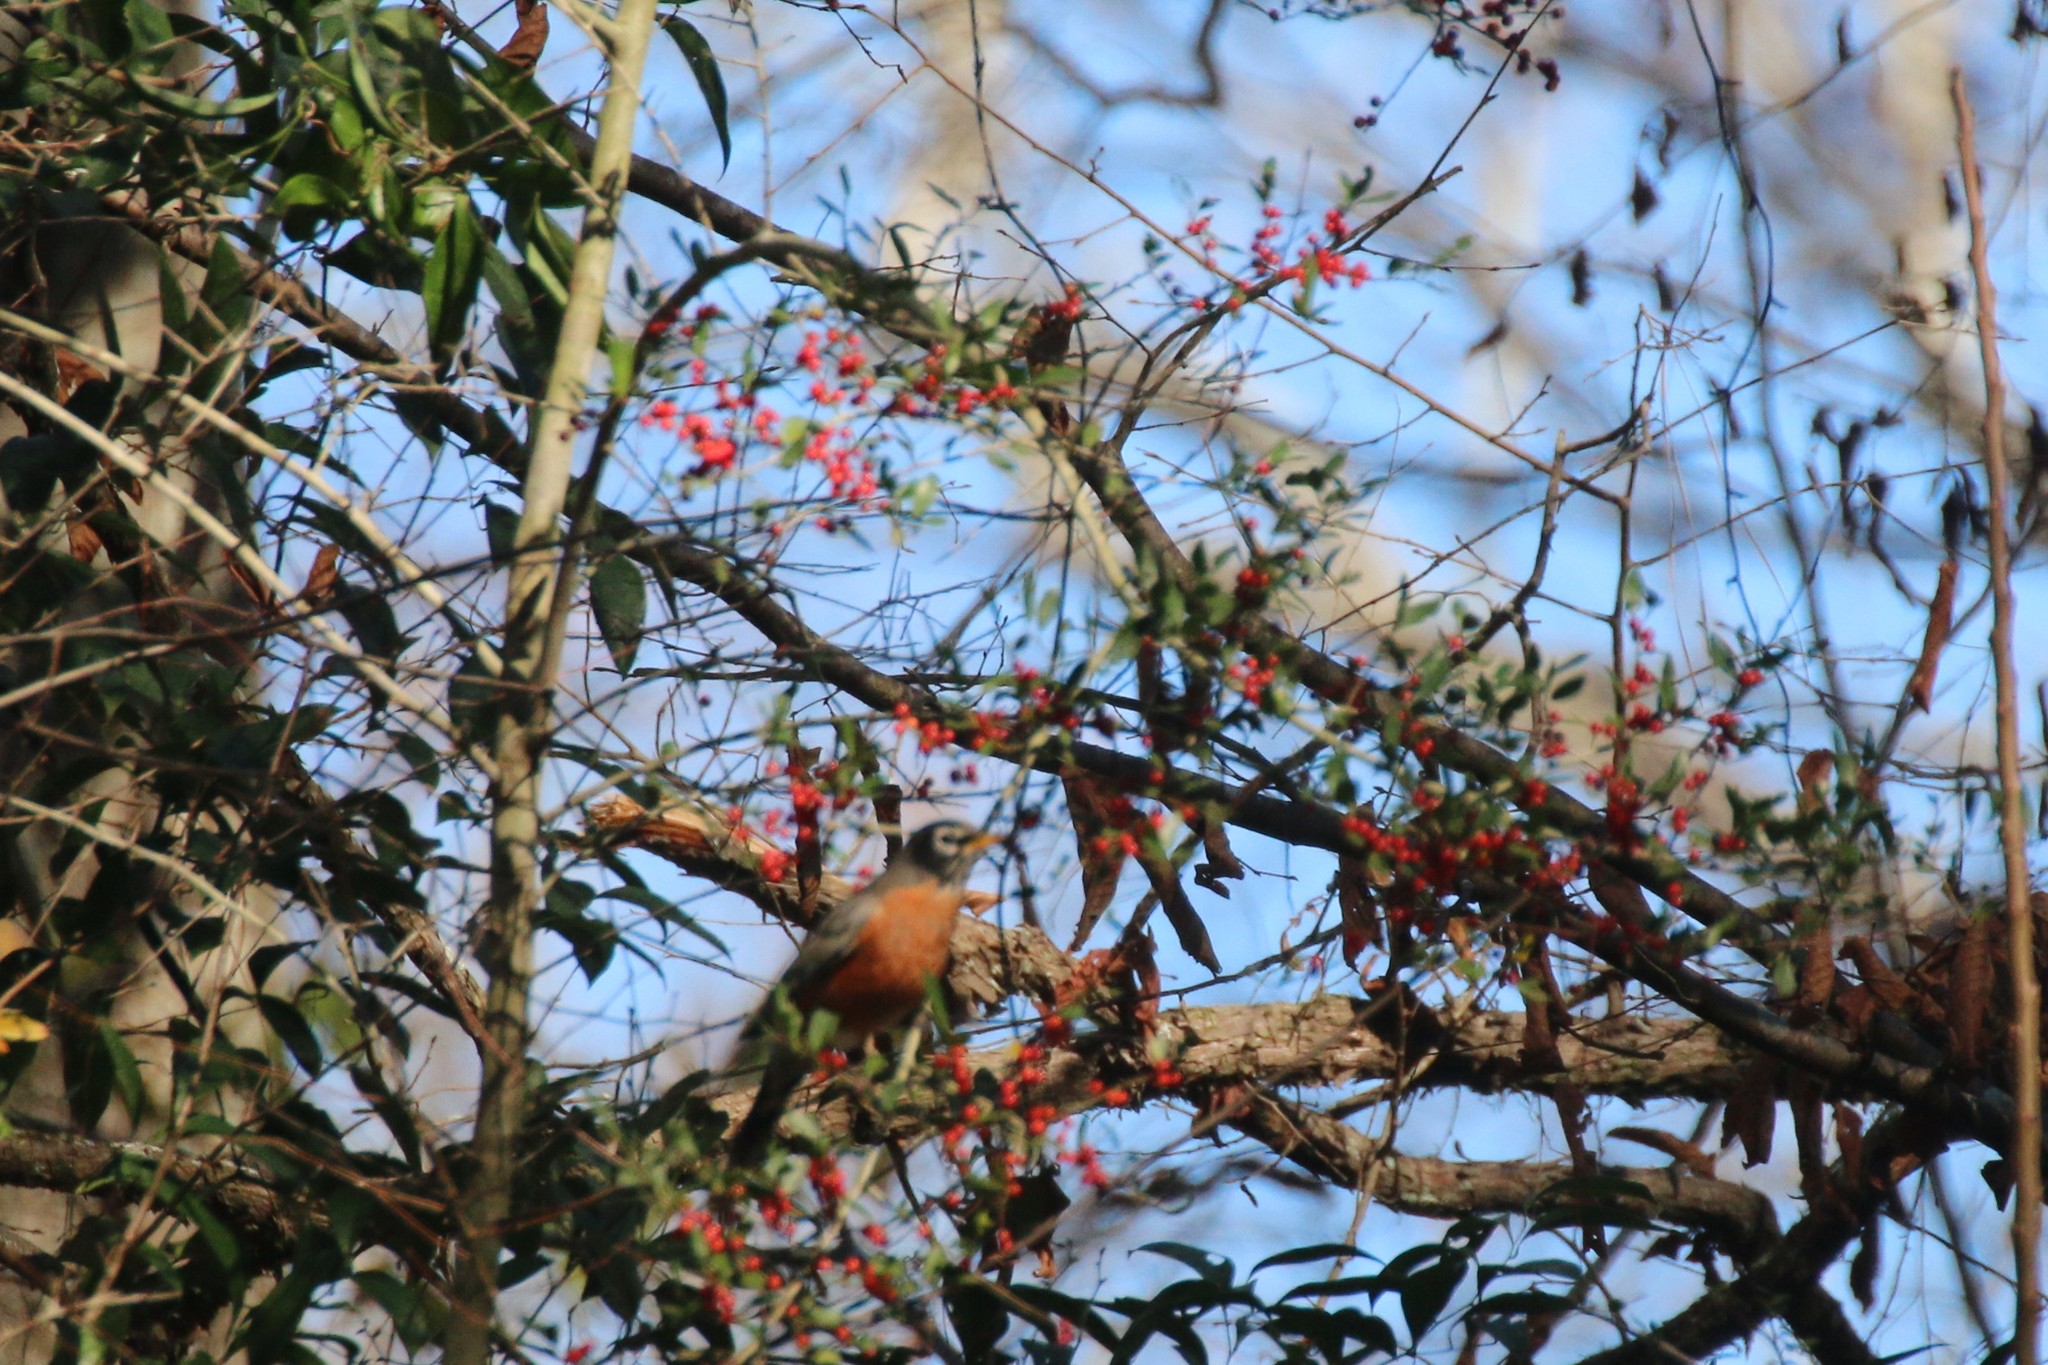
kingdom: Animalia
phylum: Chordata
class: Aves
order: Passeriformes
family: Turdidae
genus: Turdus
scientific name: Turdus migratorius
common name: American robin
